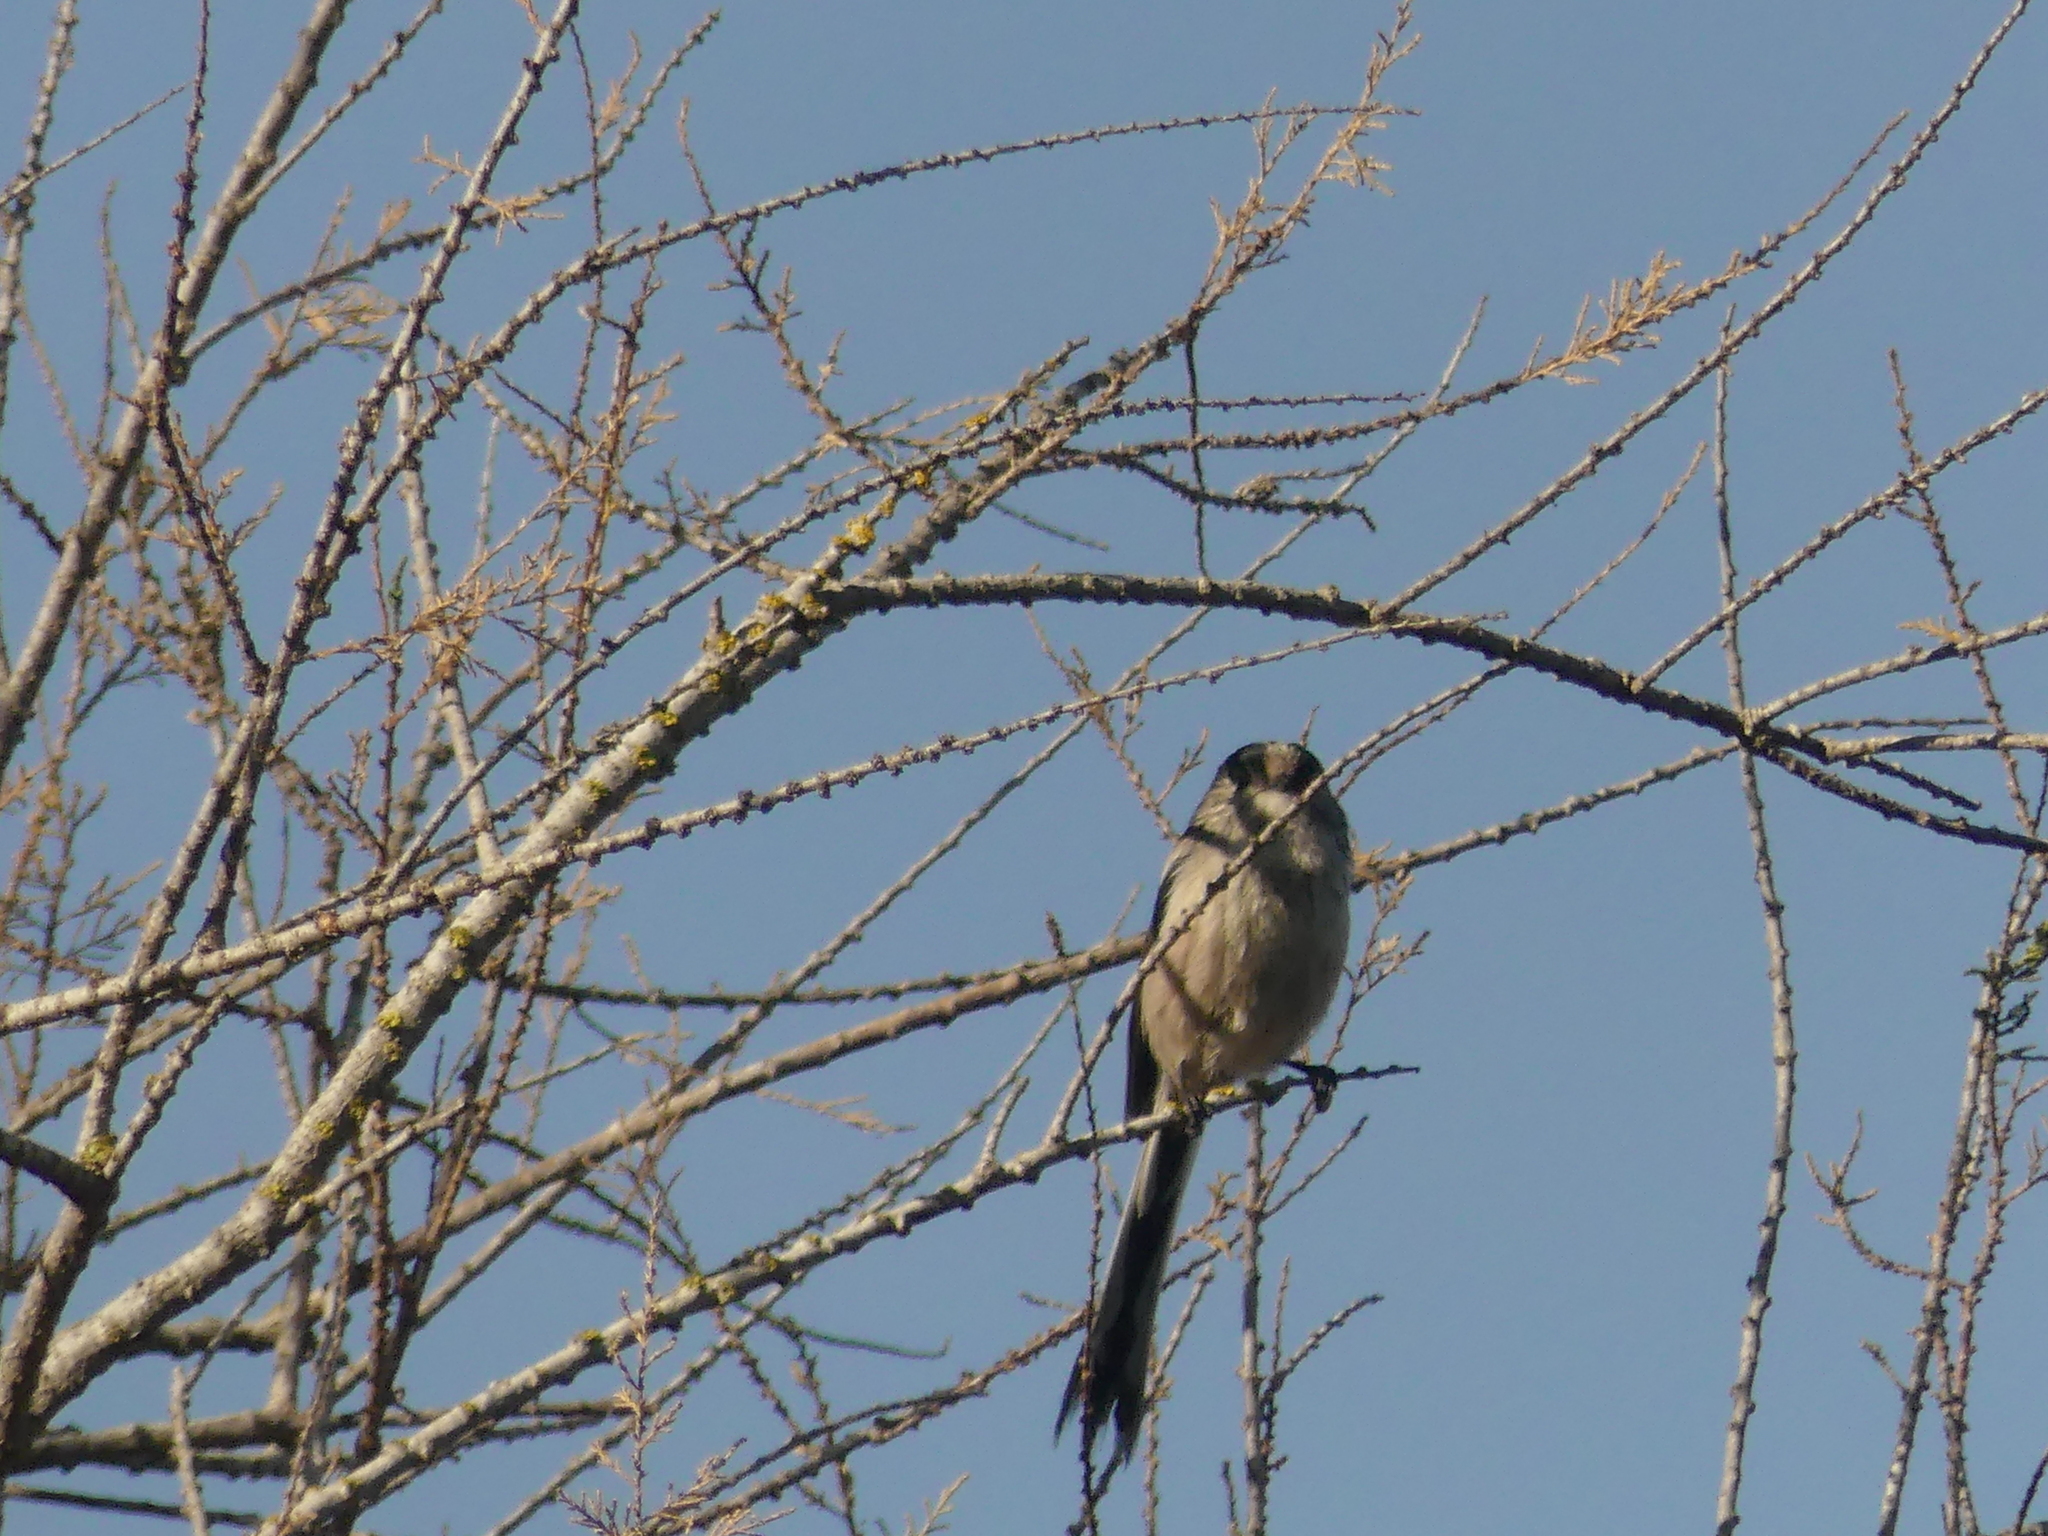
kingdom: Animalia
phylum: Chordata
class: Aves
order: Passeriformes
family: Aegithalidae
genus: Aegithalos
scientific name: Aegithalos caudatus
